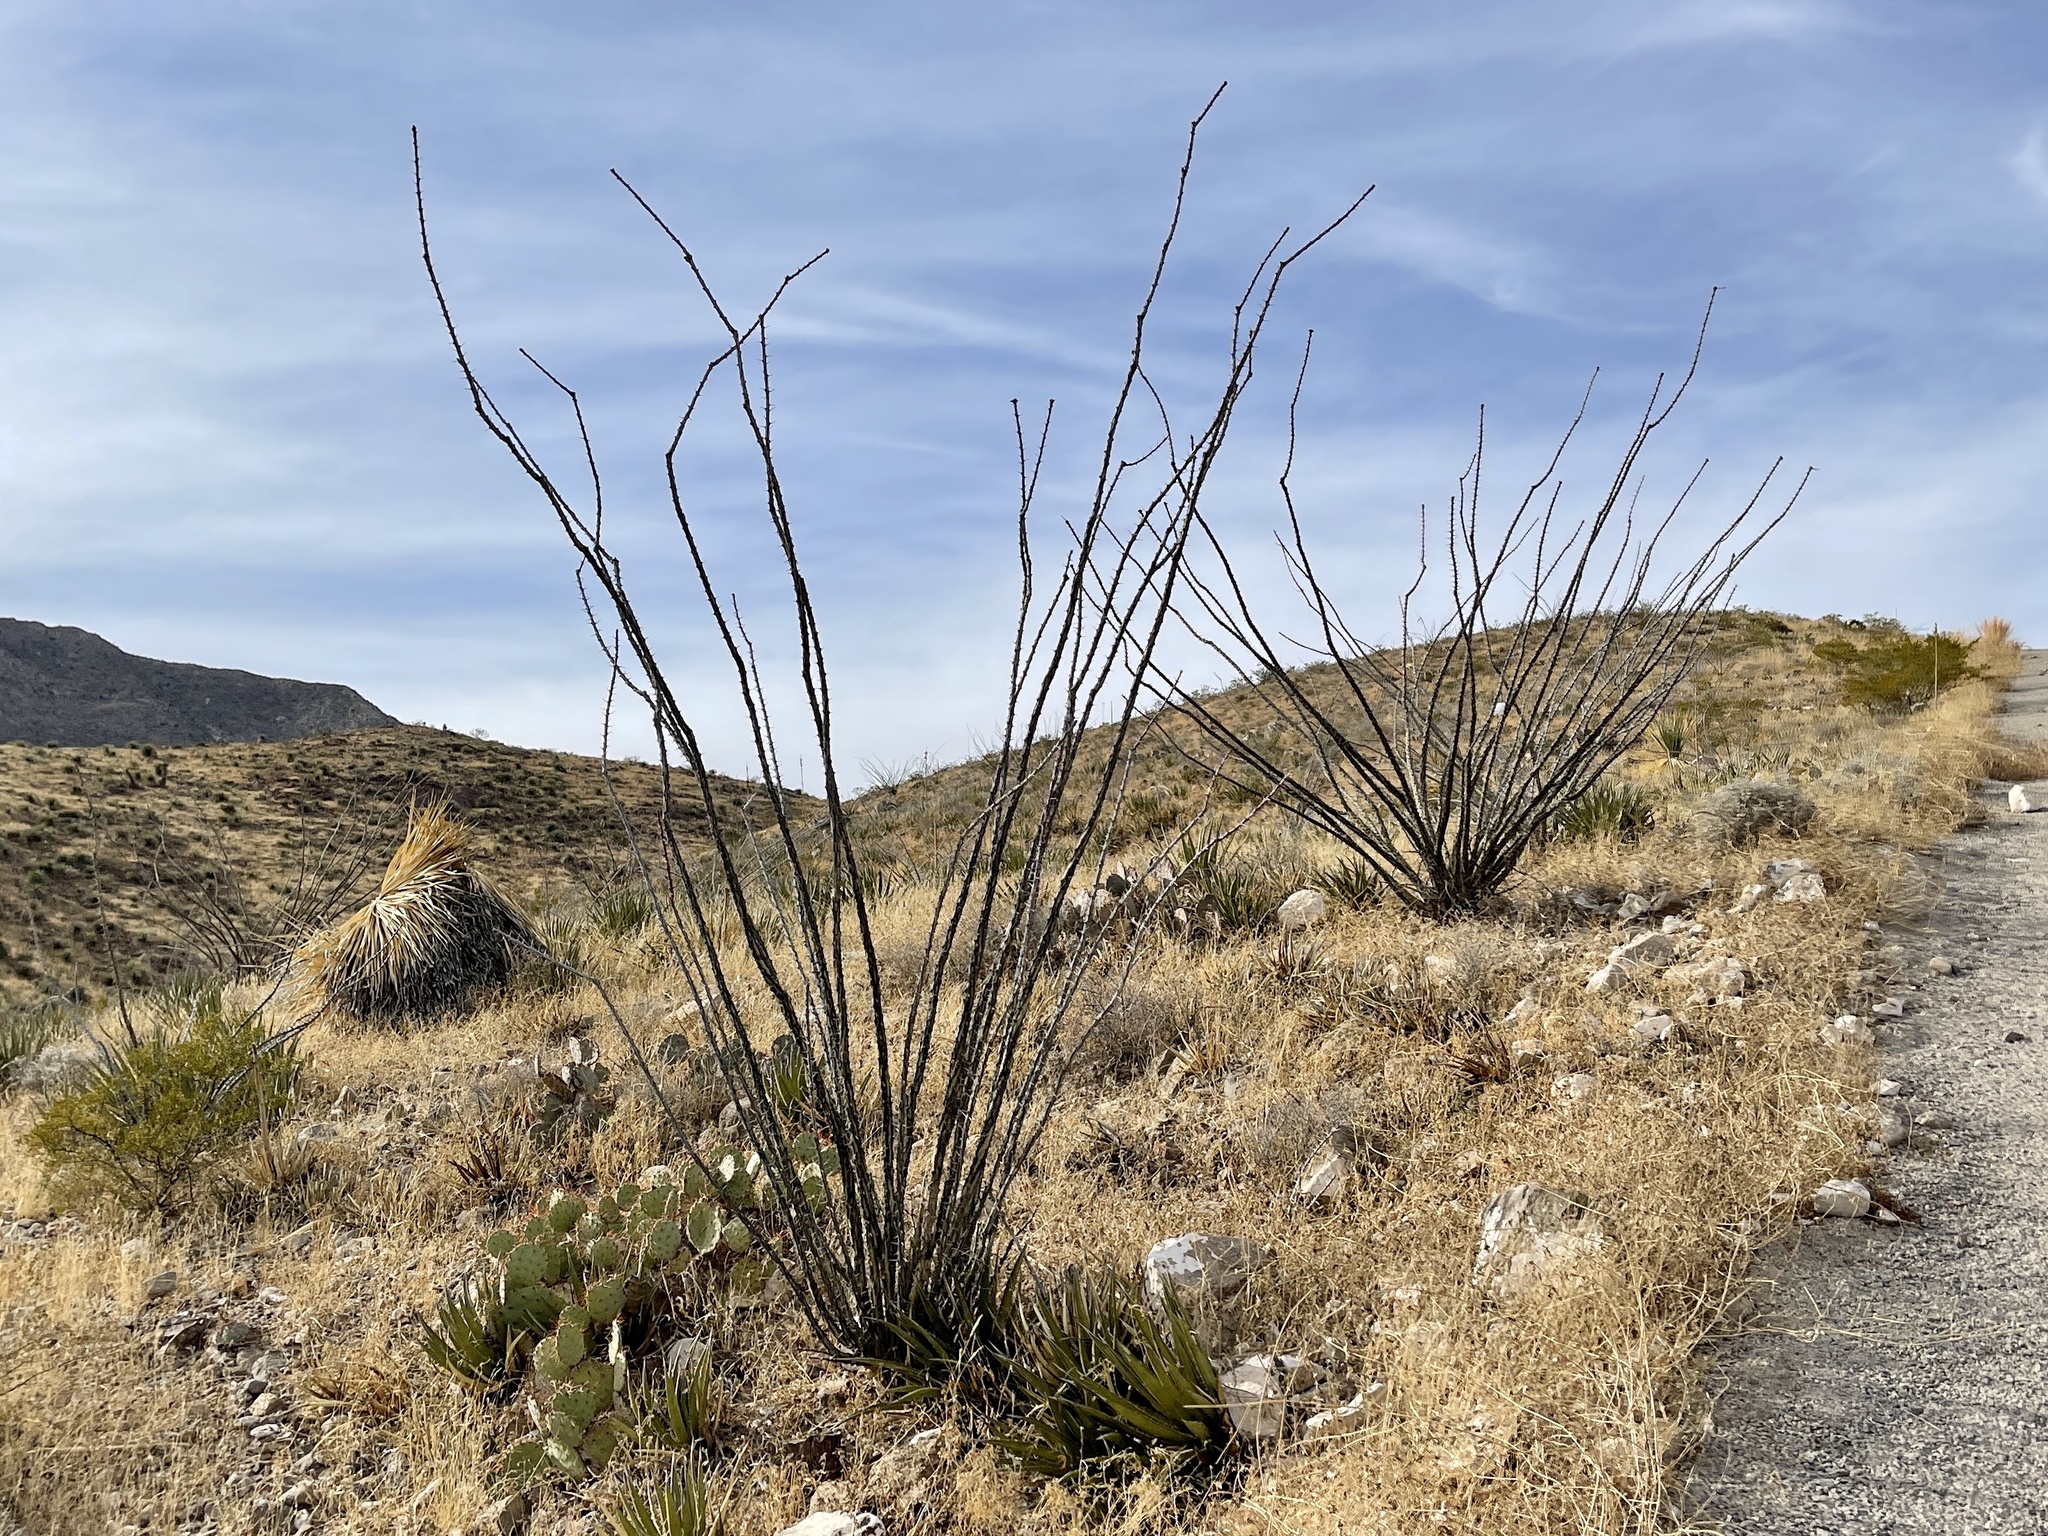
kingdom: Plantae
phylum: Tracheophyta
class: Magnoliopsida
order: Ericales
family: Fouquieriaceae
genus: Fouquieria
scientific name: Fouquieria splendens
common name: Vine-cactus
